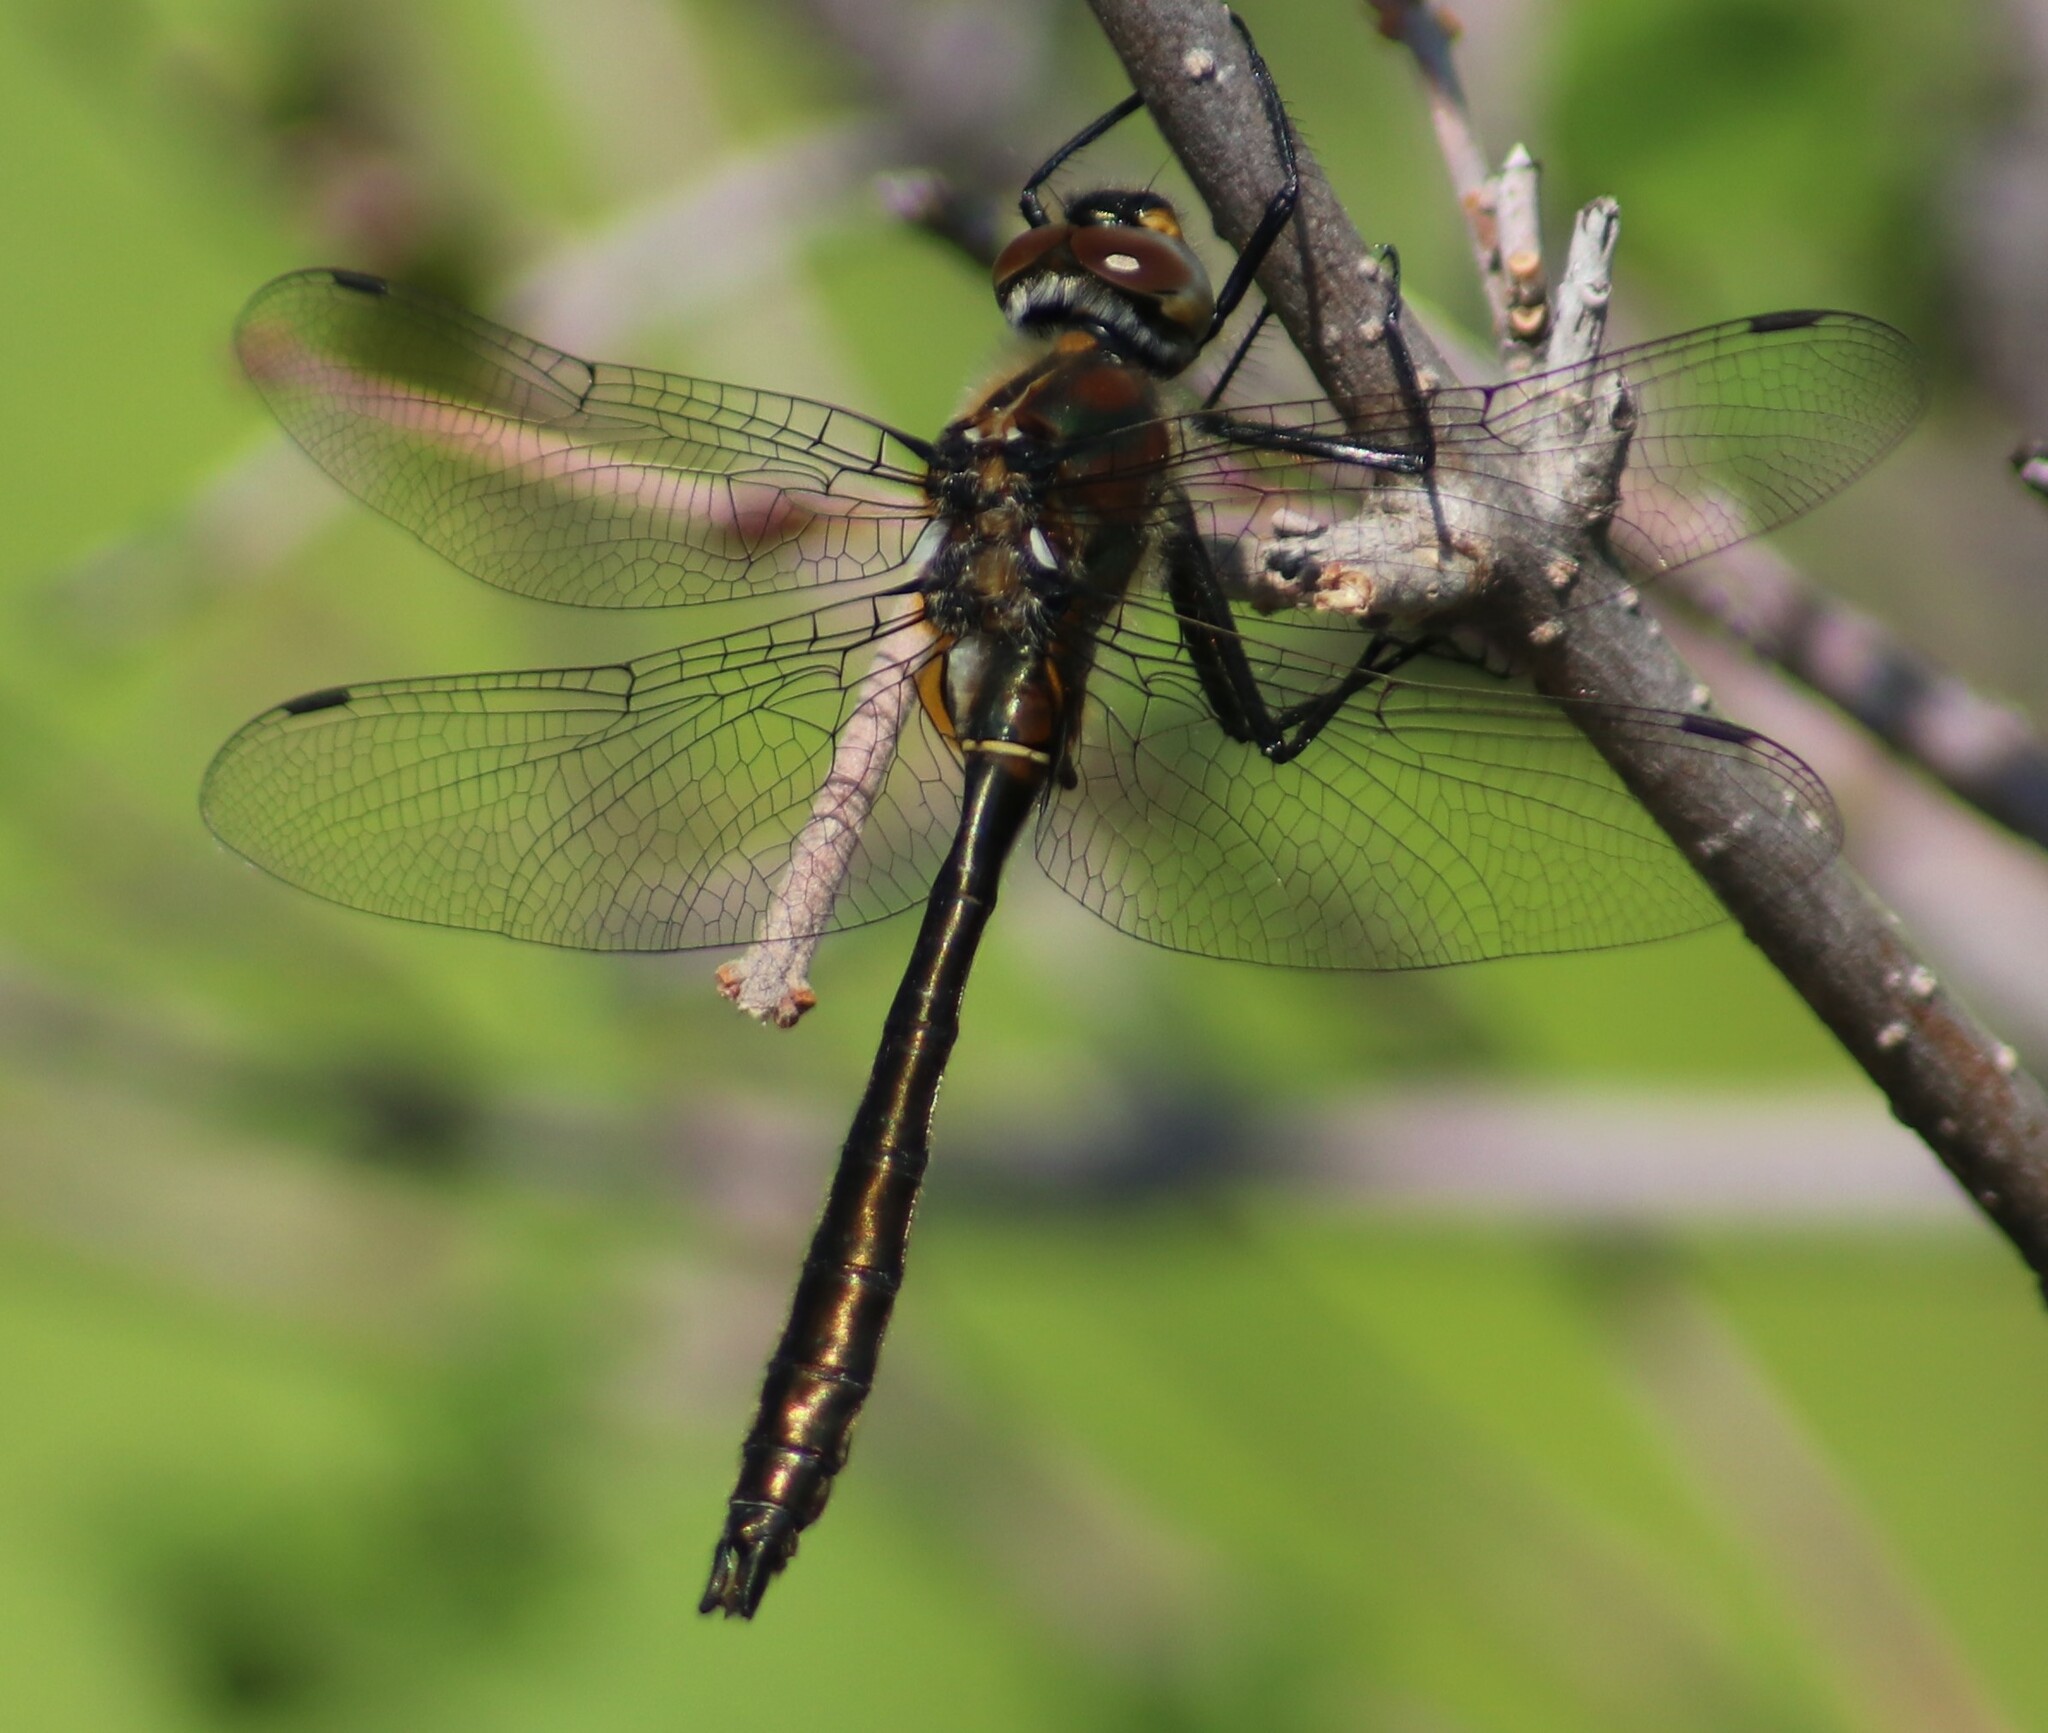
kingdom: Animalia
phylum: Arthropoda
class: Insecta
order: Odonata
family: Corduliidae
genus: Cordulia
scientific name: Cordulia shurtleffii
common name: American emerald
